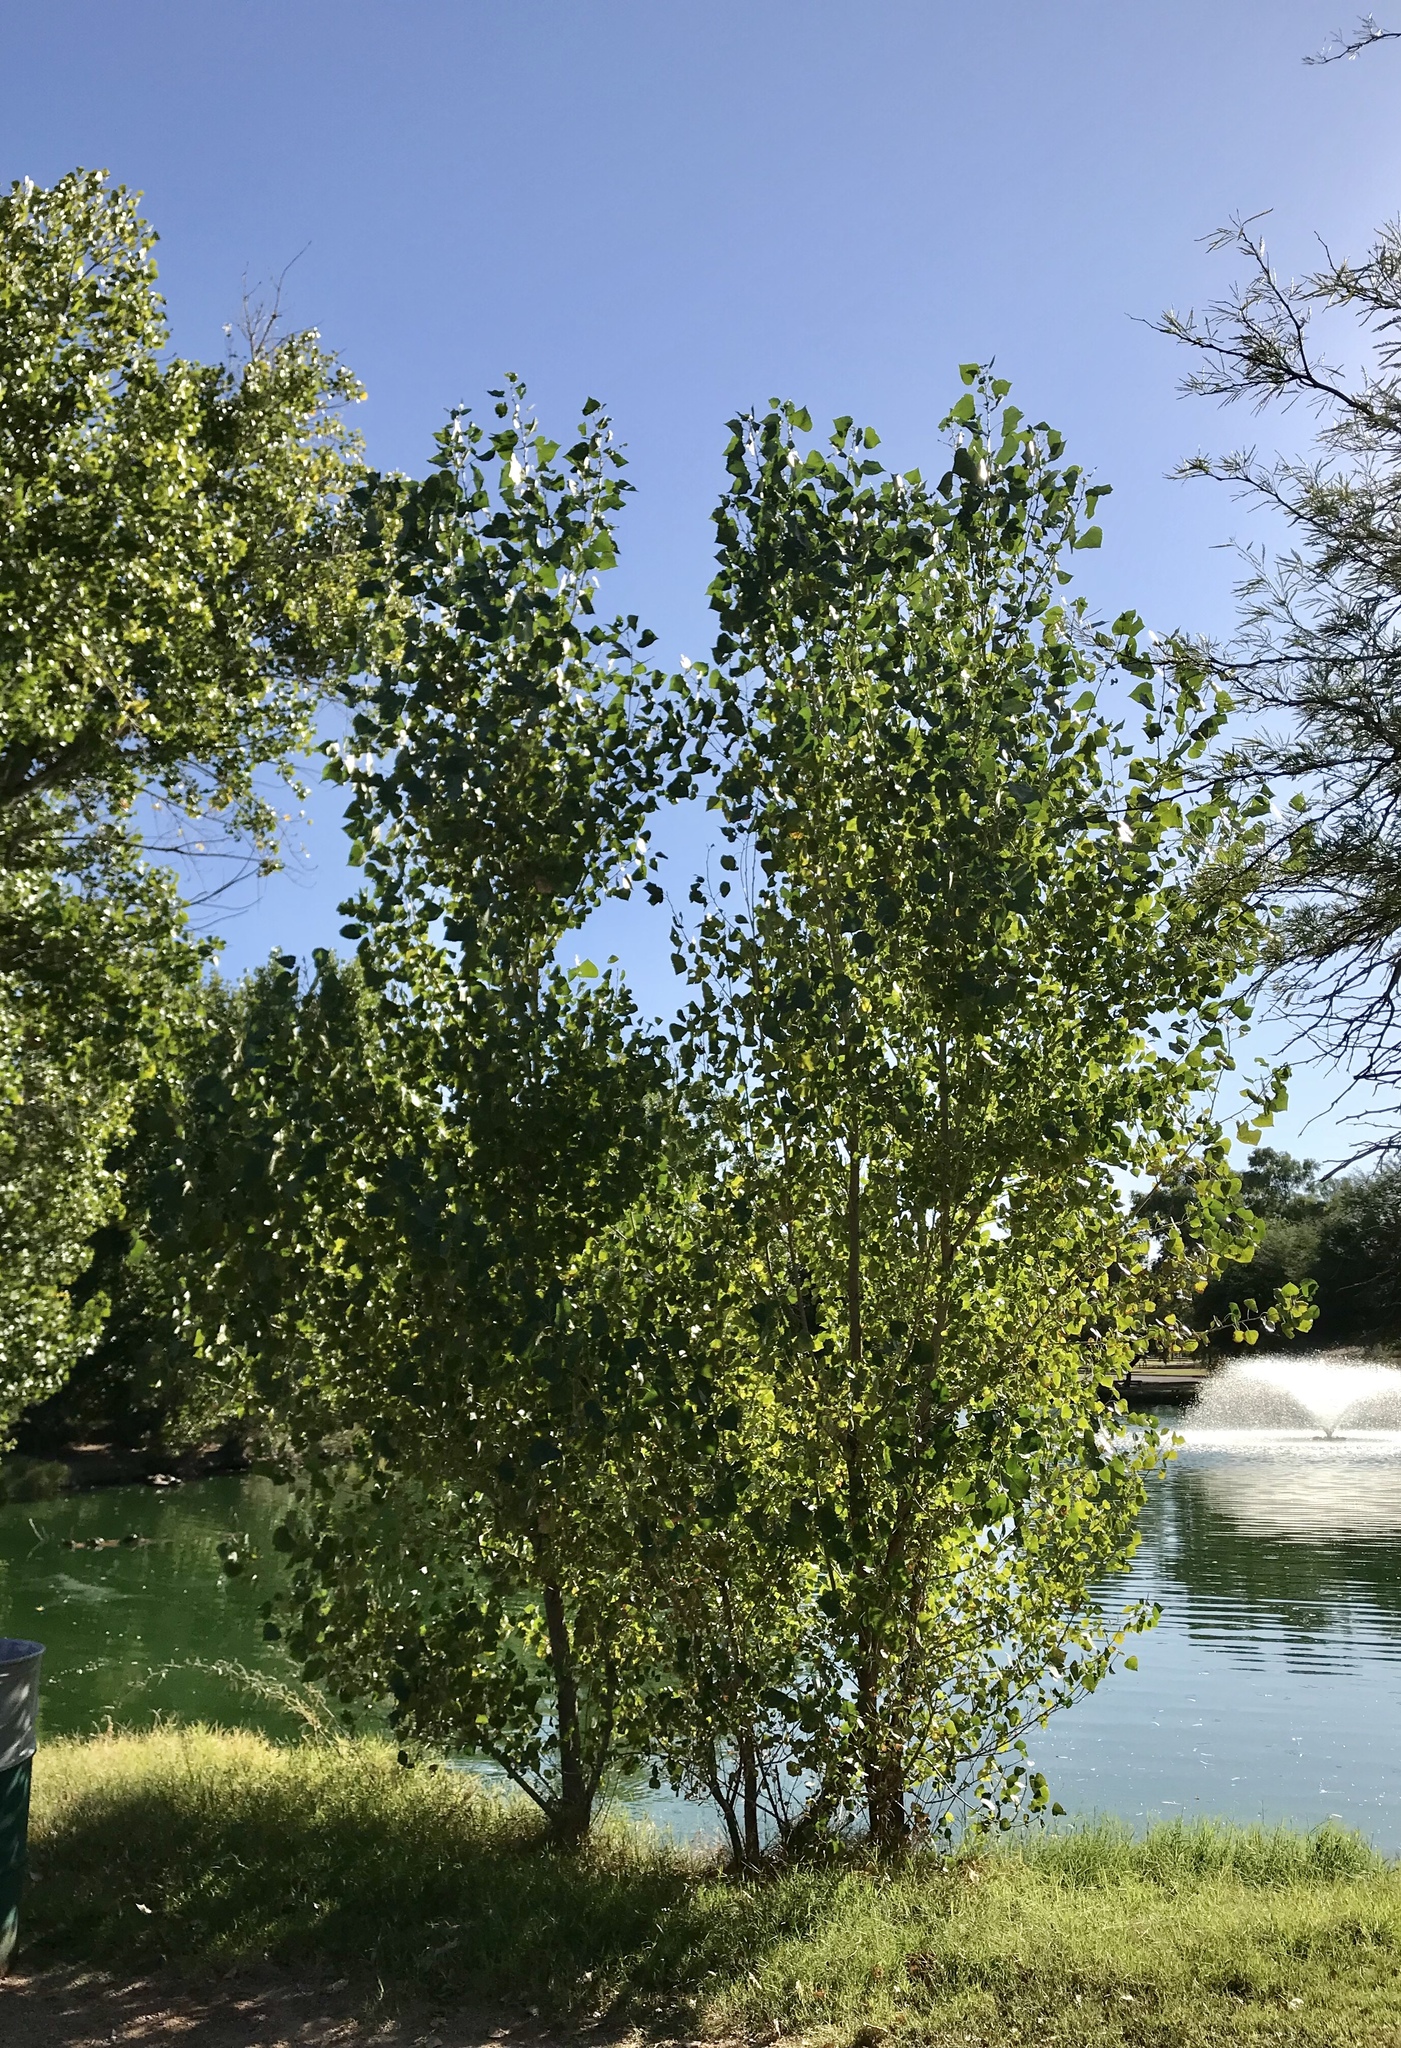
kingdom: Plantae
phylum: Tracheophyta
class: Magnoliopsida
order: Malpighiales
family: Salicaceae
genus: Populus
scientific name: Populus fremontii
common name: Fremont's cottonwood
